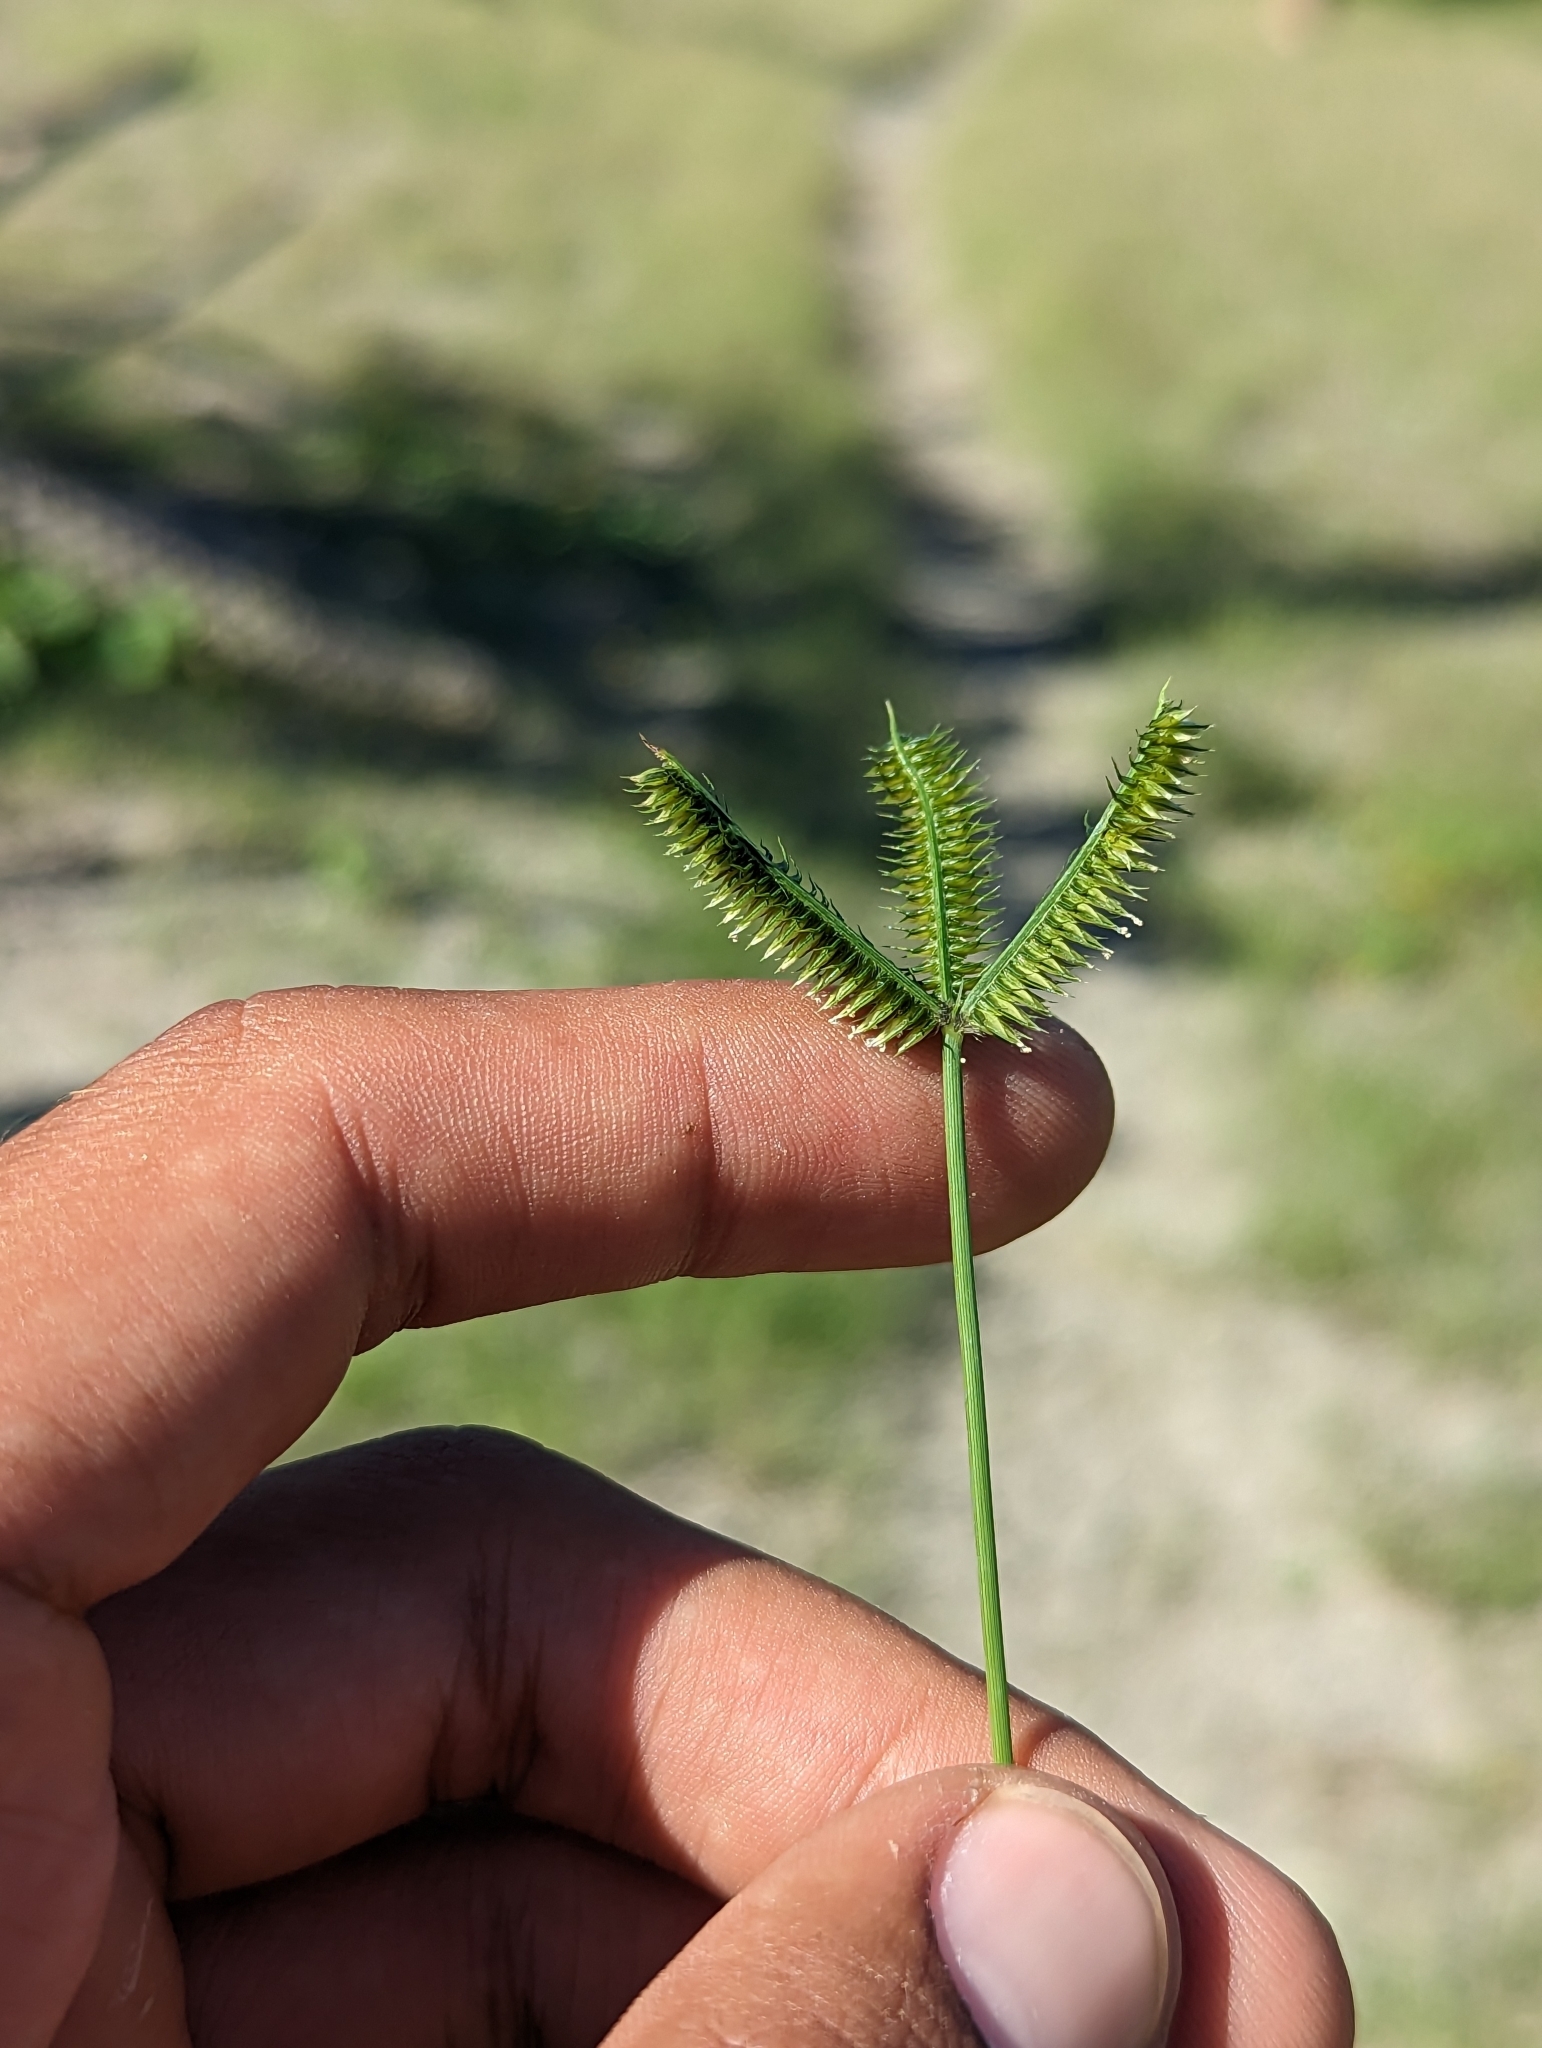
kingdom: Plantae
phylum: Tracheophyta
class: Liliopsida
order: Poales
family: Poaceae
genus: Dactyloctenium
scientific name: Dactyloctenium aegyptium
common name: Egyptian grass
